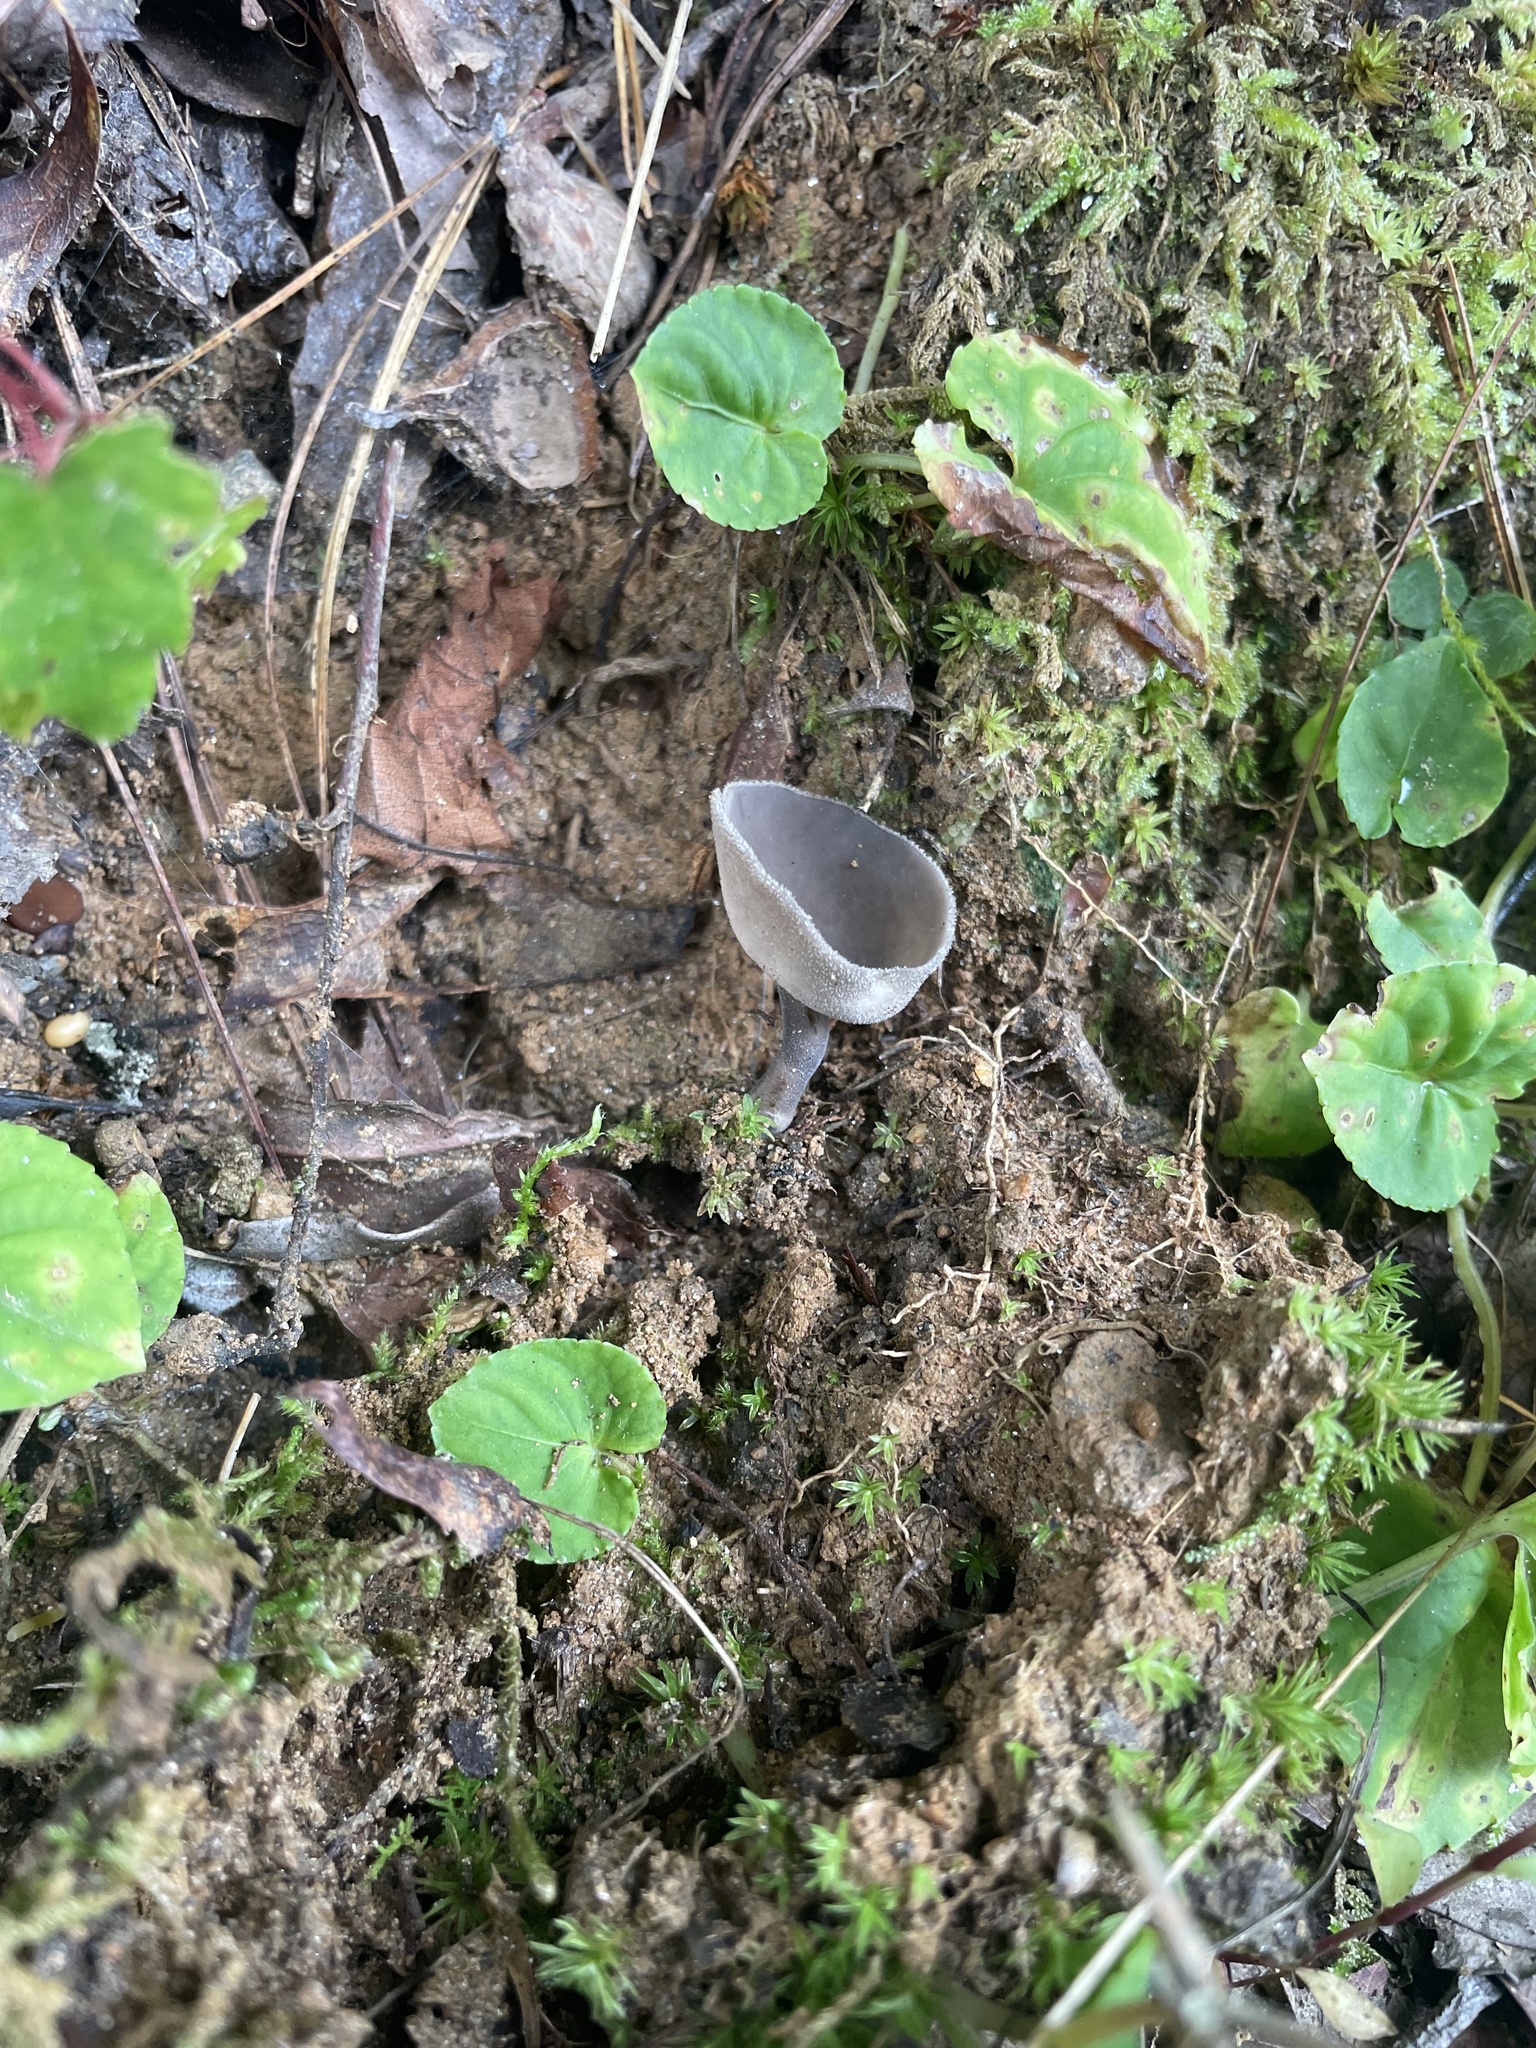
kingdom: Fungi
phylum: Ascomycota
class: Pezizomycetes
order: Pezizales
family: Helvellaceae
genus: Helvella
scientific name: Helvella macropus
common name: Felt saddle
